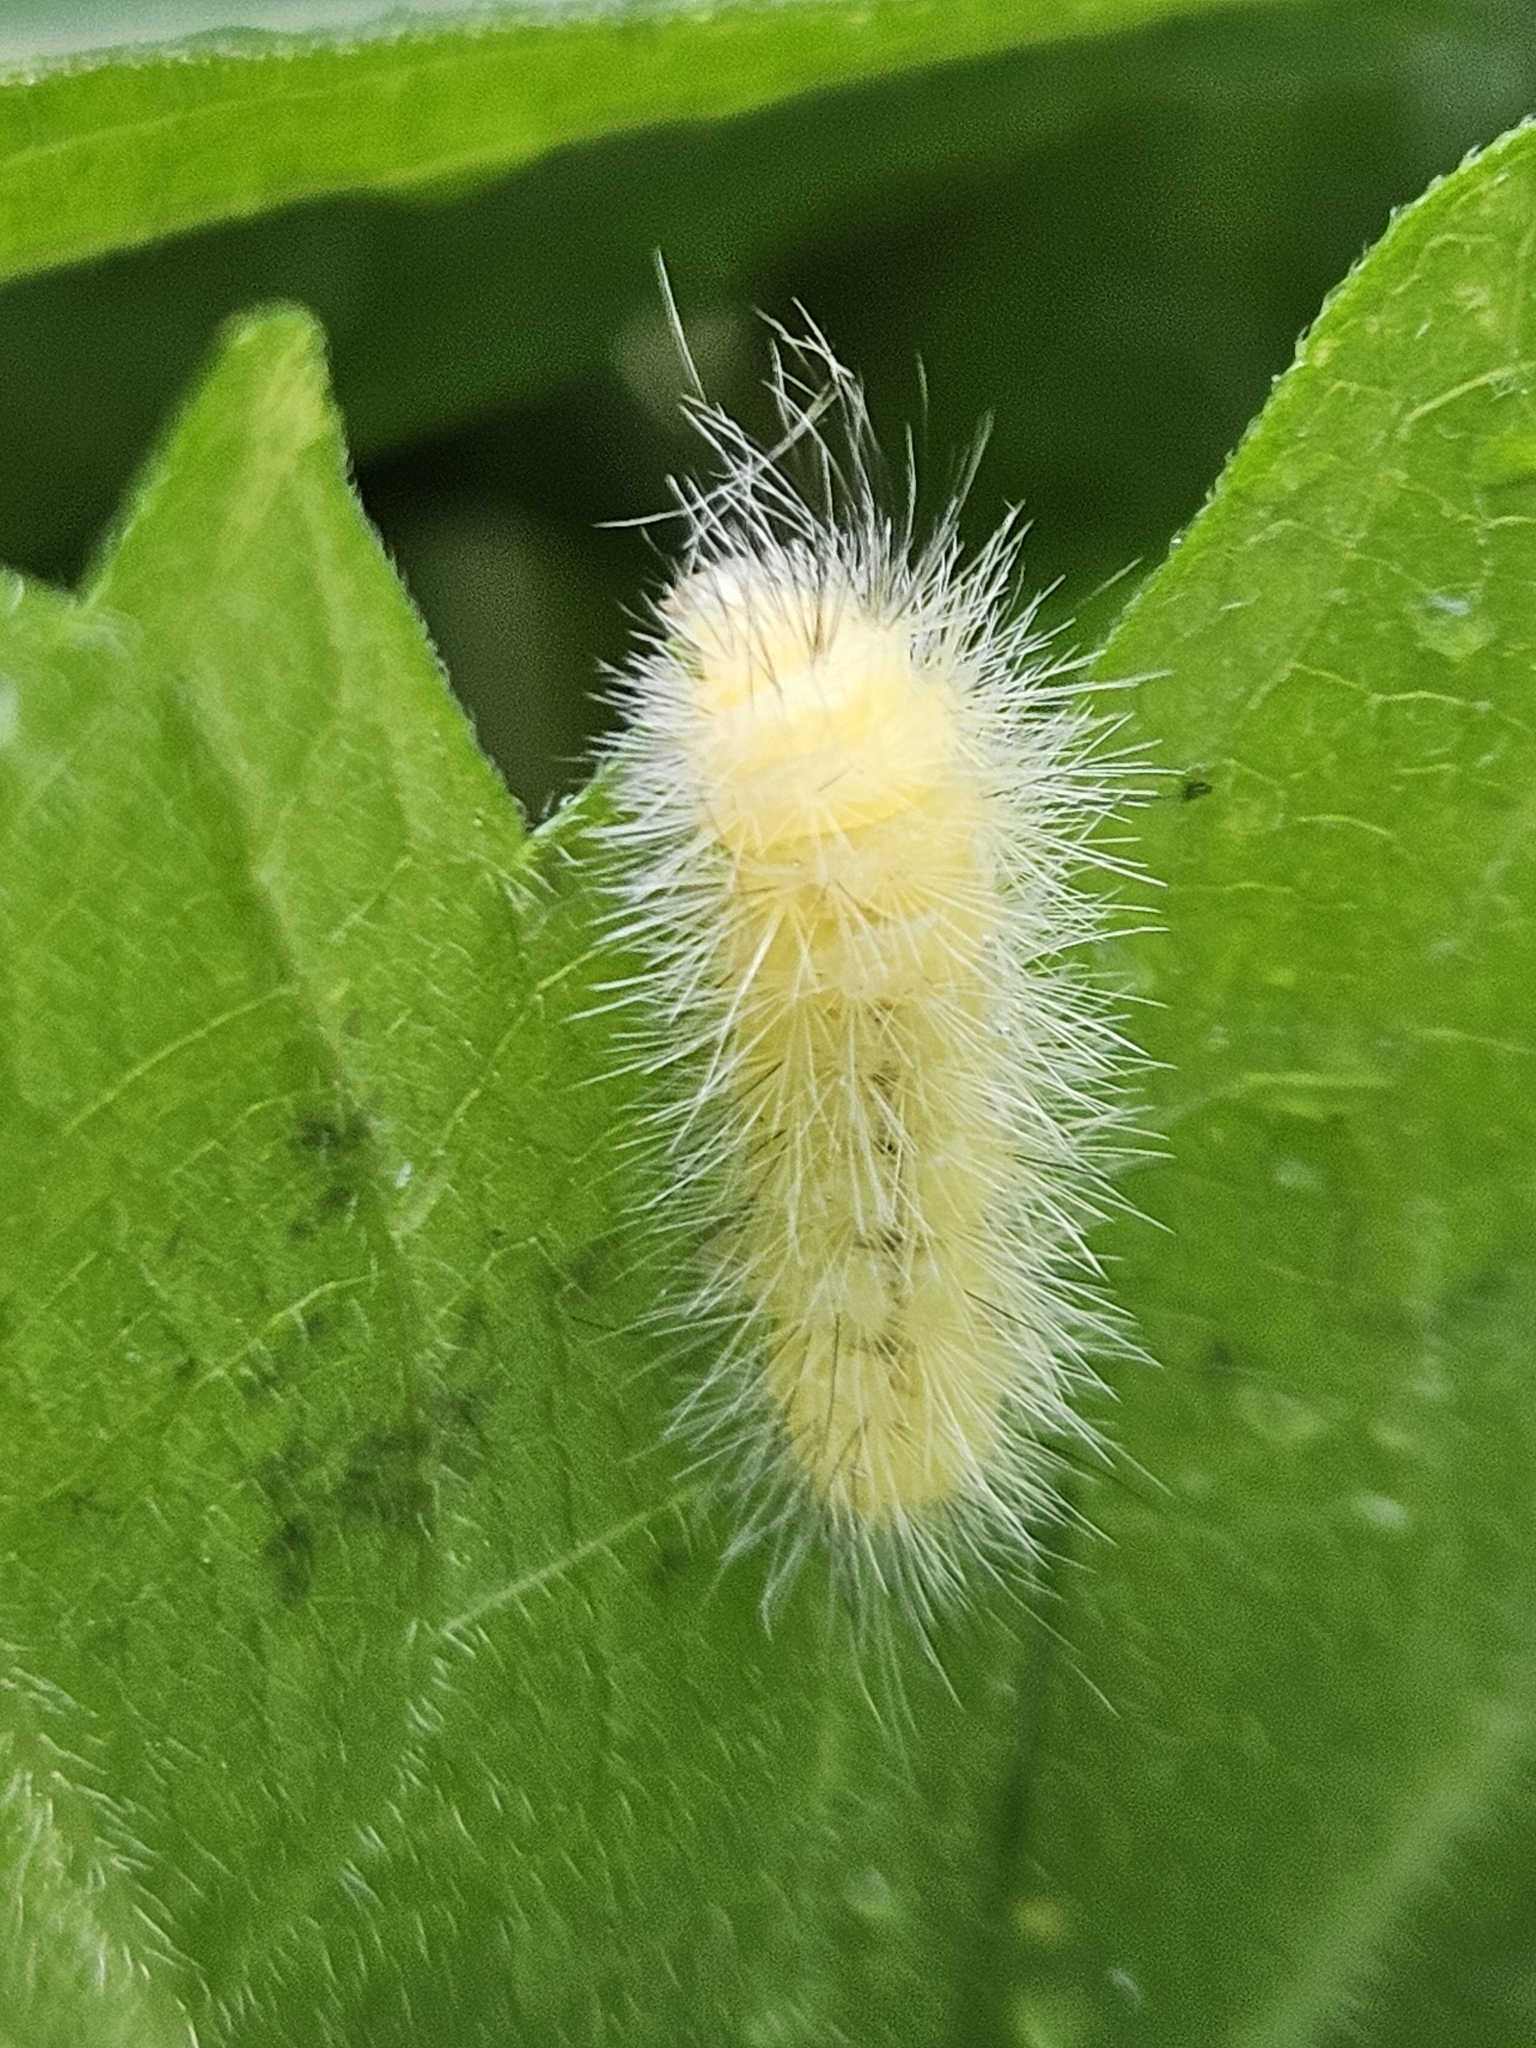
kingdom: Animalia
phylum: Arthropoda
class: Insecta
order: Lepidoptera
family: Erebidae
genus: Spilosoma
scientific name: Spilosoma virginica
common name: Virginia tiger moth
